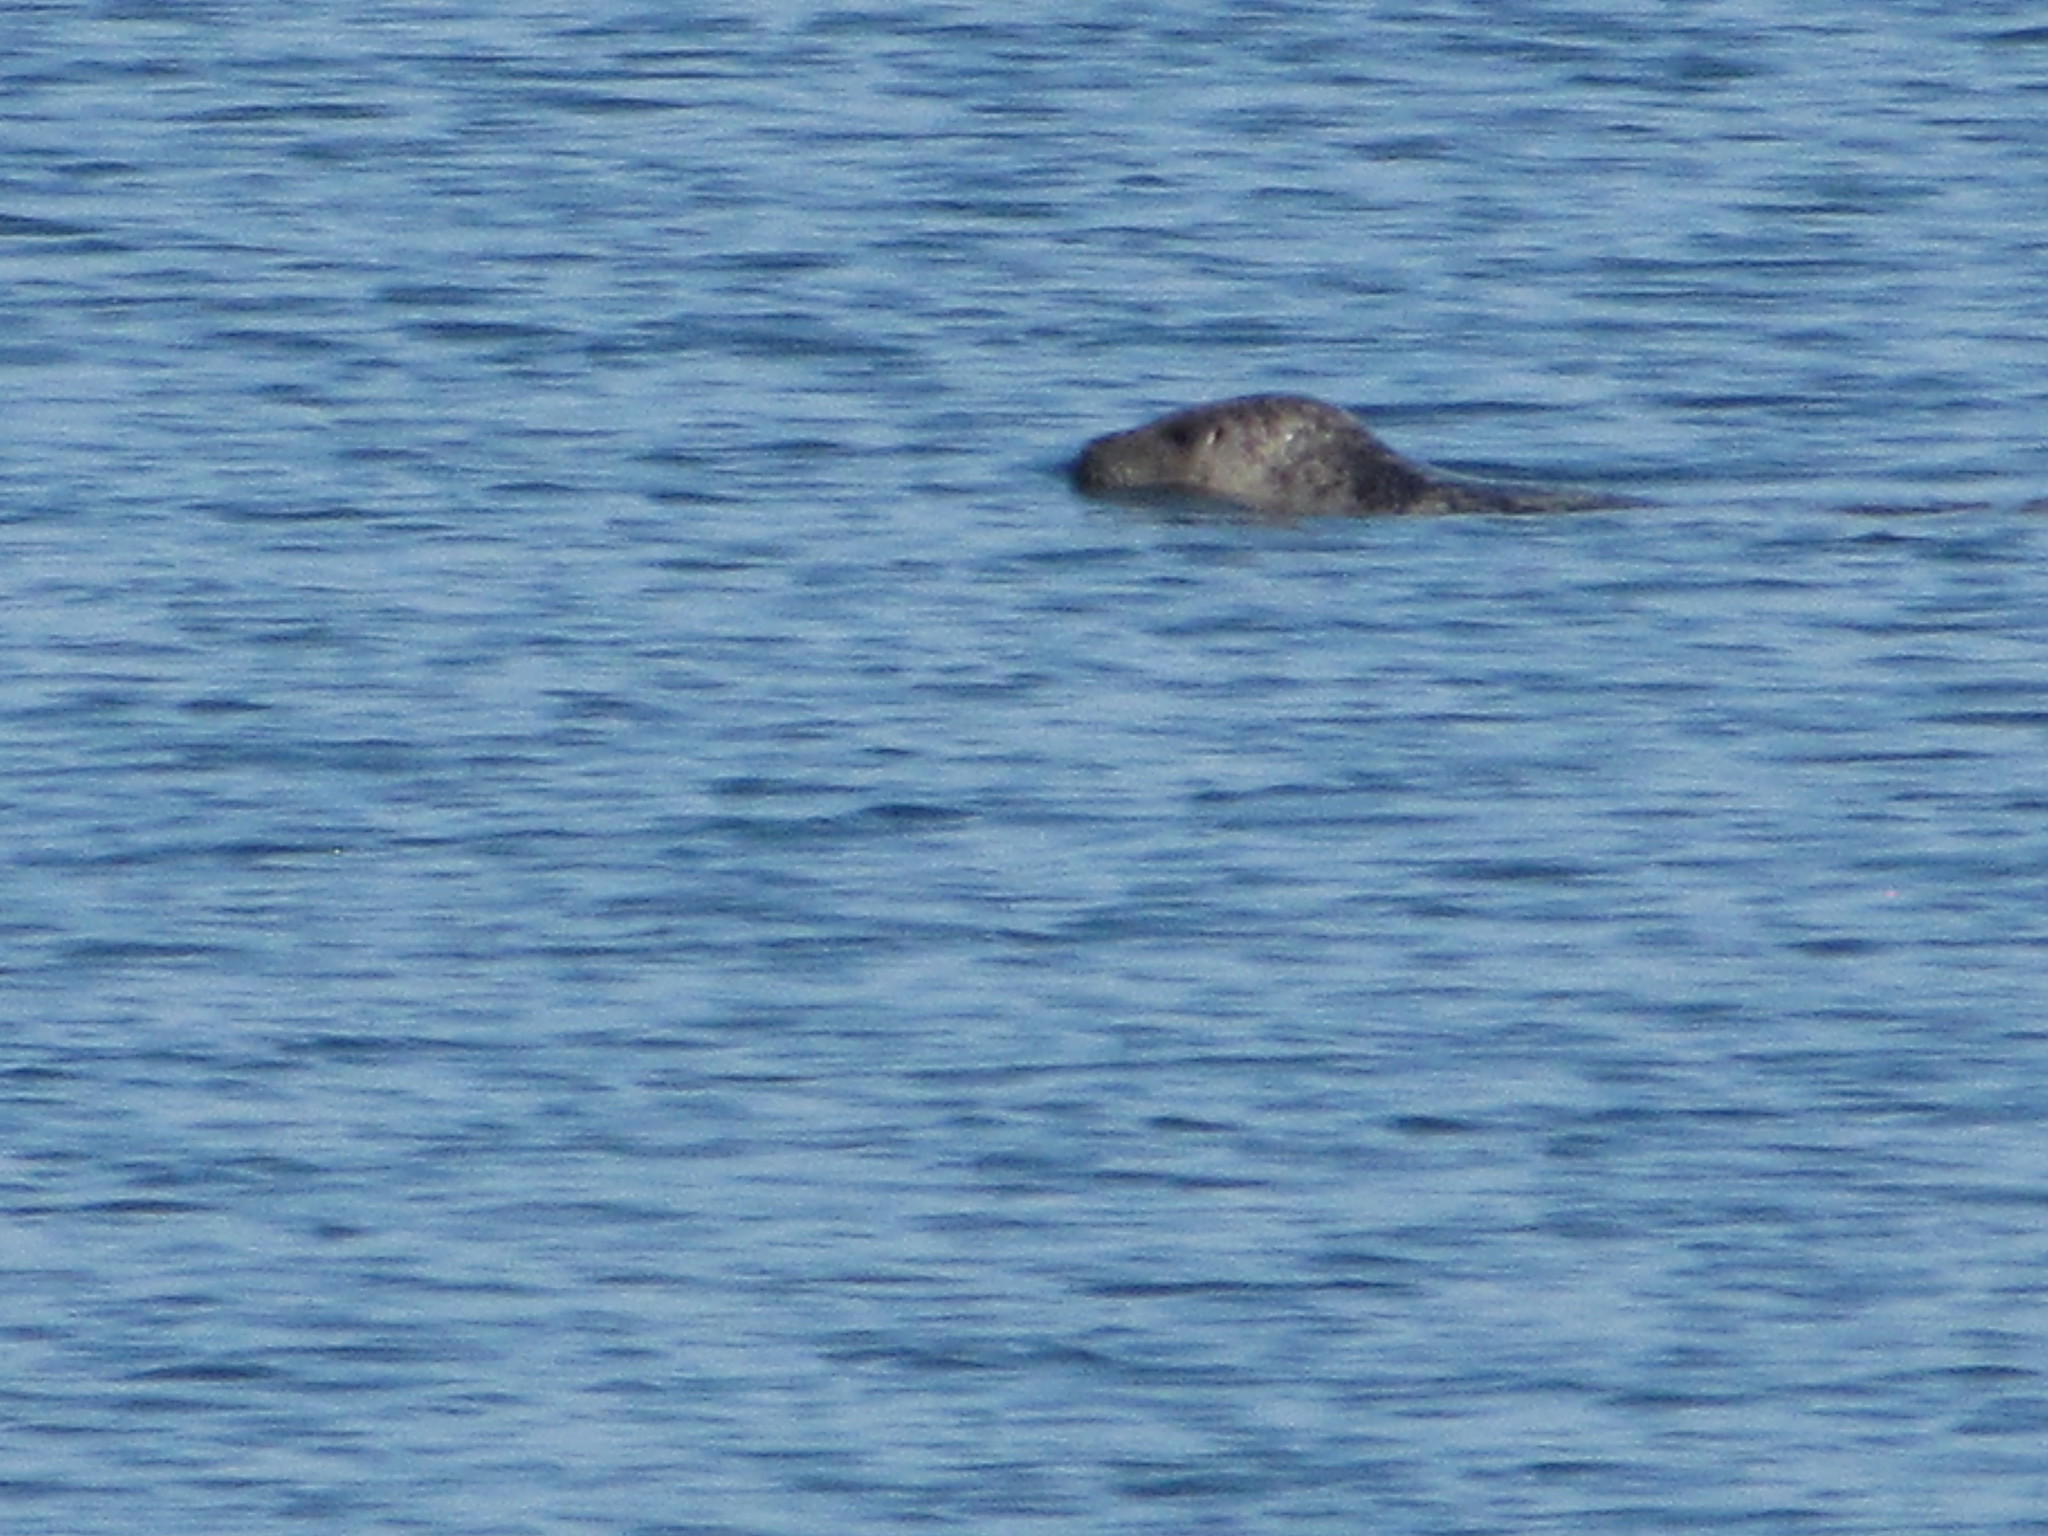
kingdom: Animalia
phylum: Chordata
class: Mammalia
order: Carnivora
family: Phocidae
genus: Phoca
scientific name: Phoca vitulina
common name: Harbor seal
